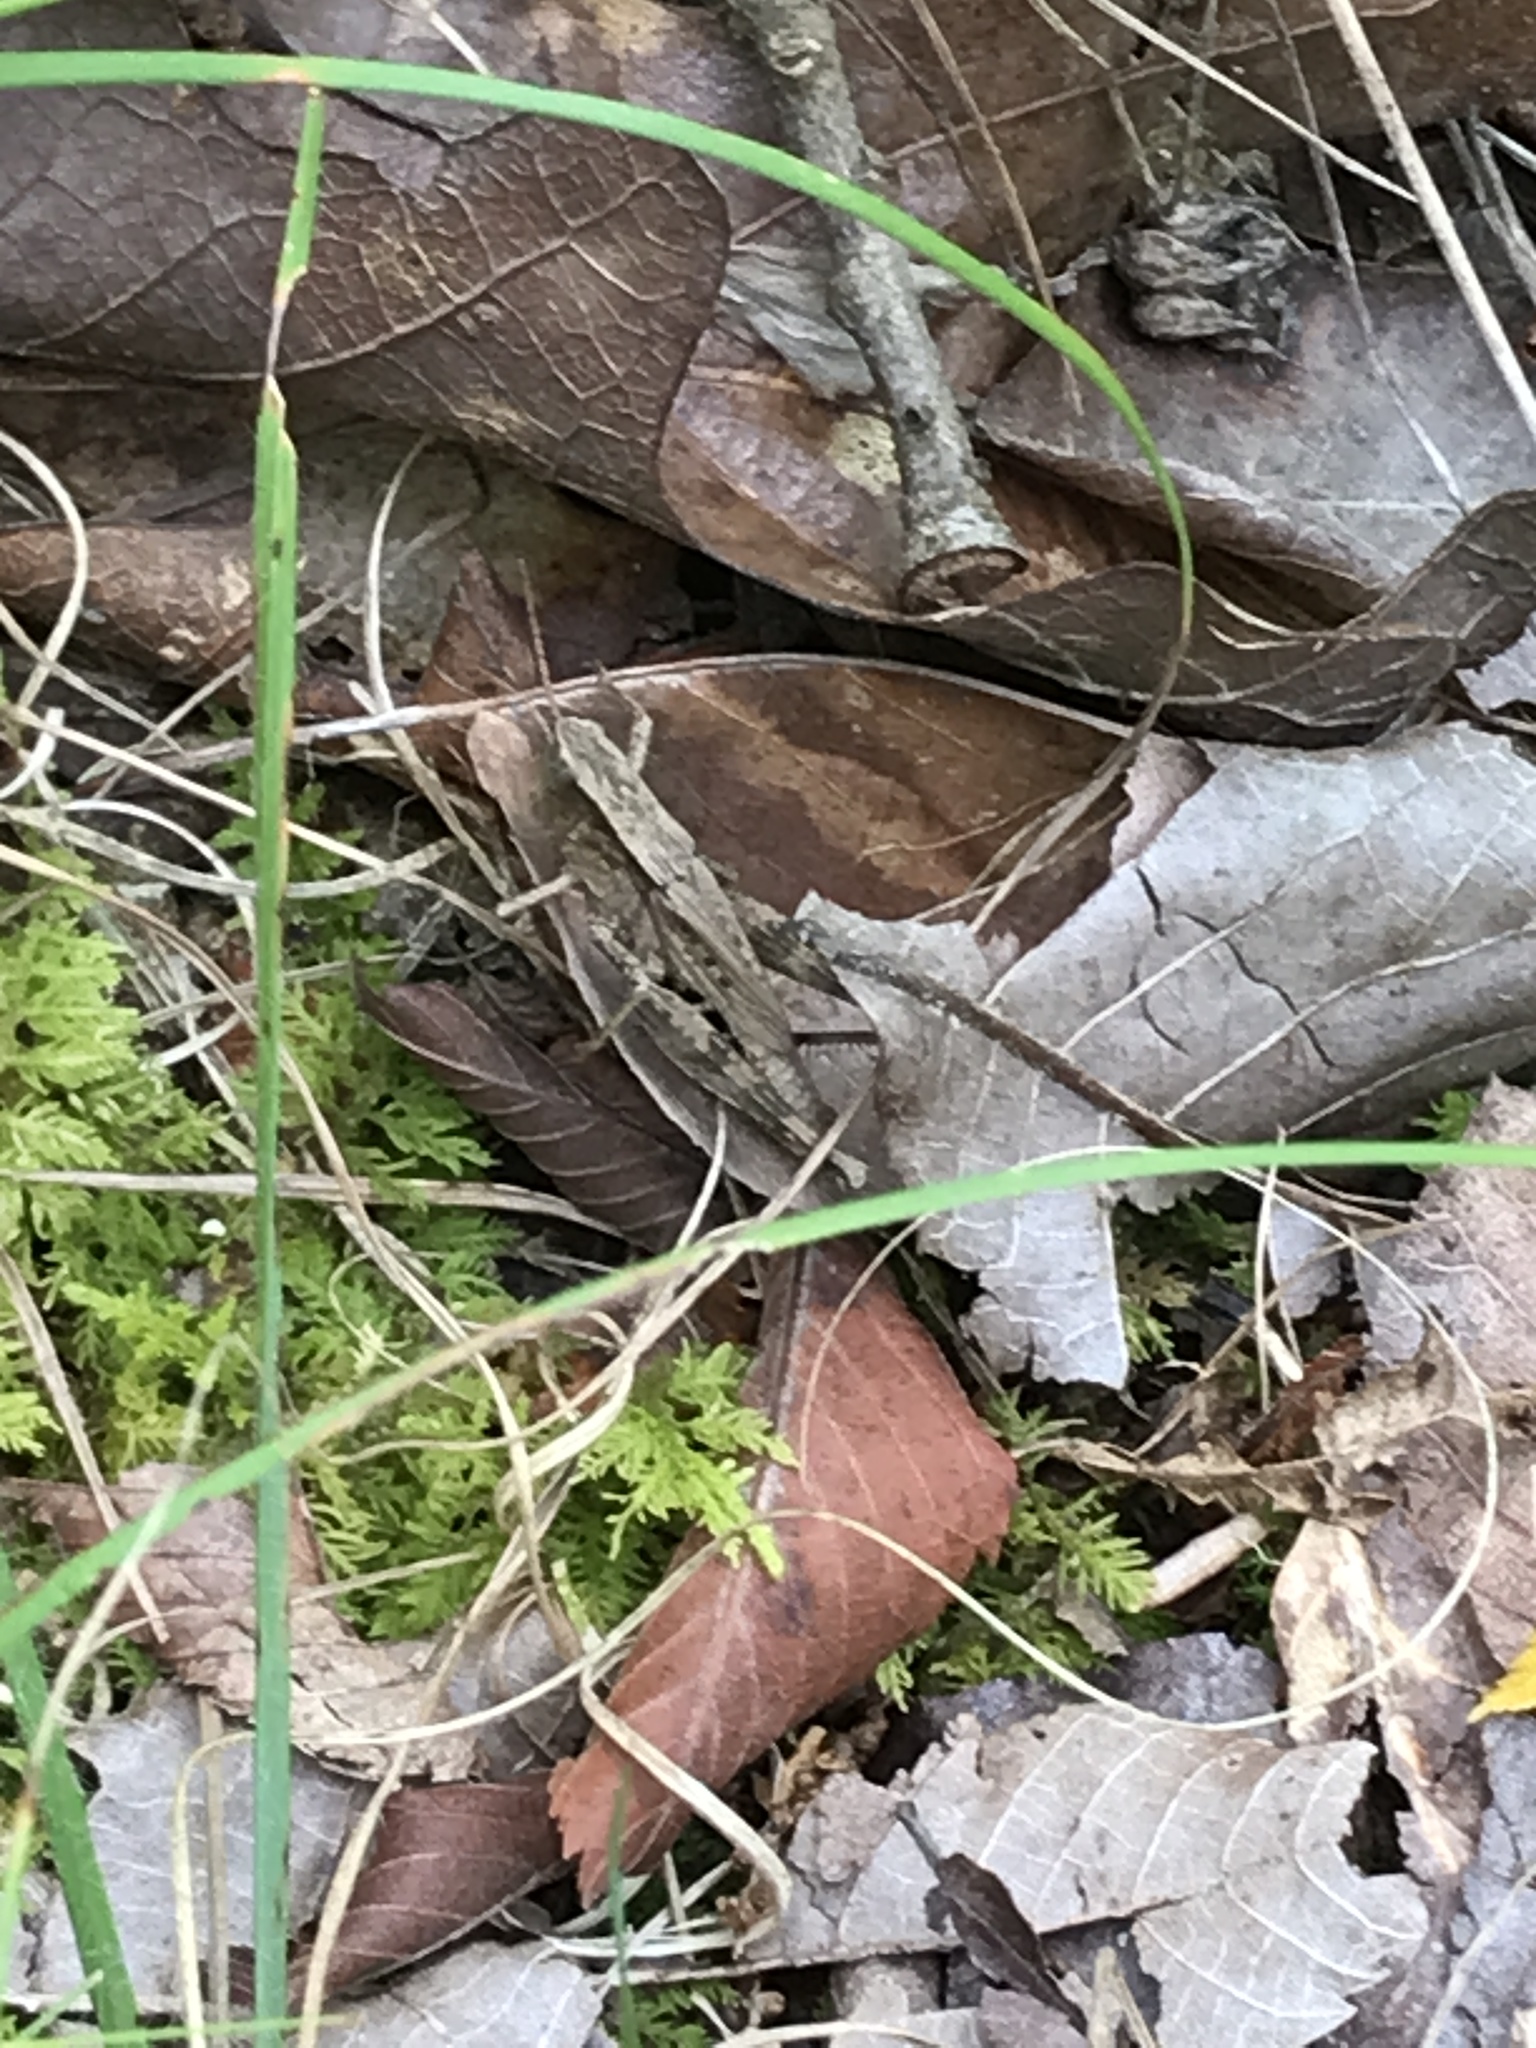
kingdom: Animalia
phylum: Arthropoda
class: Insecta
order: Orthoptera
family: Acrididae
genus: Dichromorpha
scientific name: Dichromorpha viridis
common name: Short-winged green grasshopper
